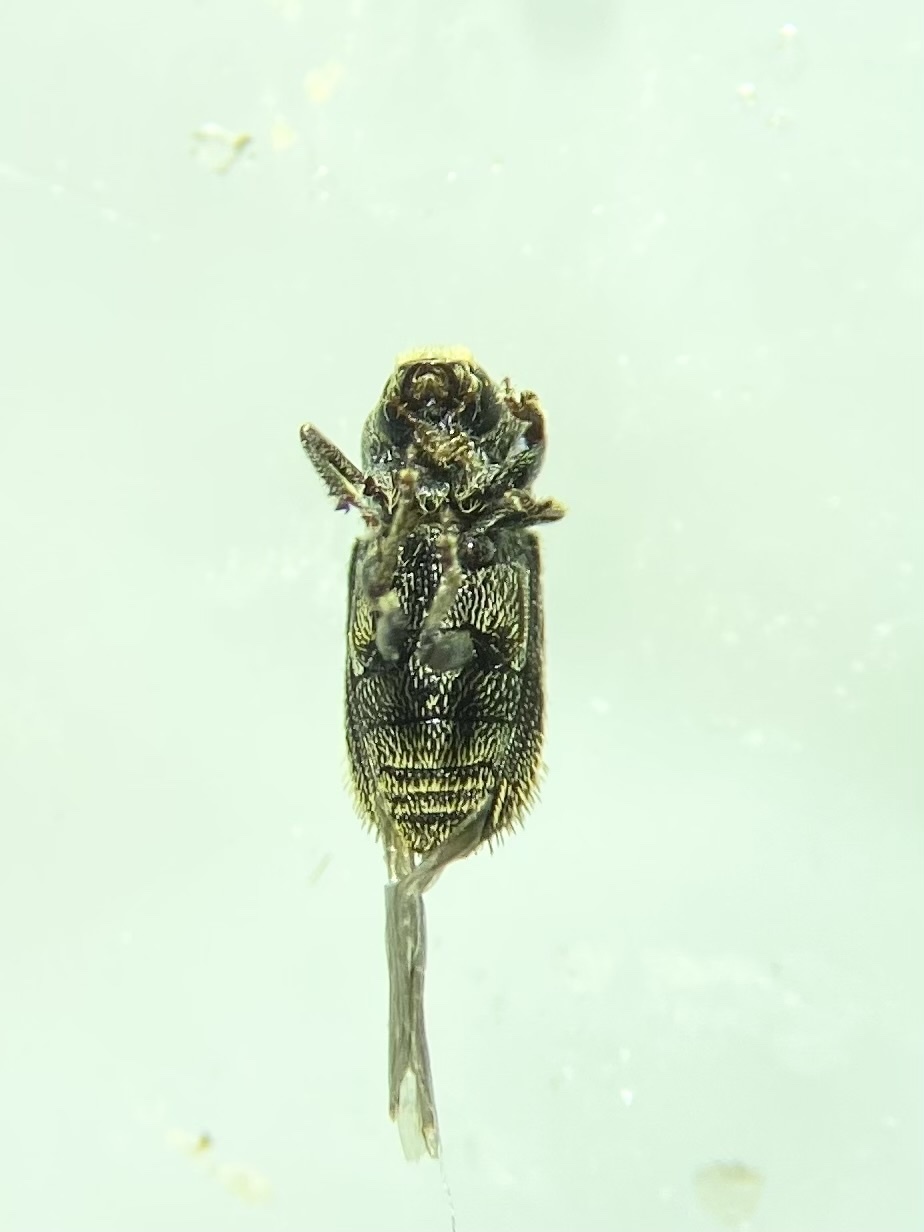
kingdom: Animalia
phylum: Arthropoda
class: Insecta
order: Coleoptera
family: Curculionidae
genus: Cnesinus
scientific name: Cnesinus strigicollis
